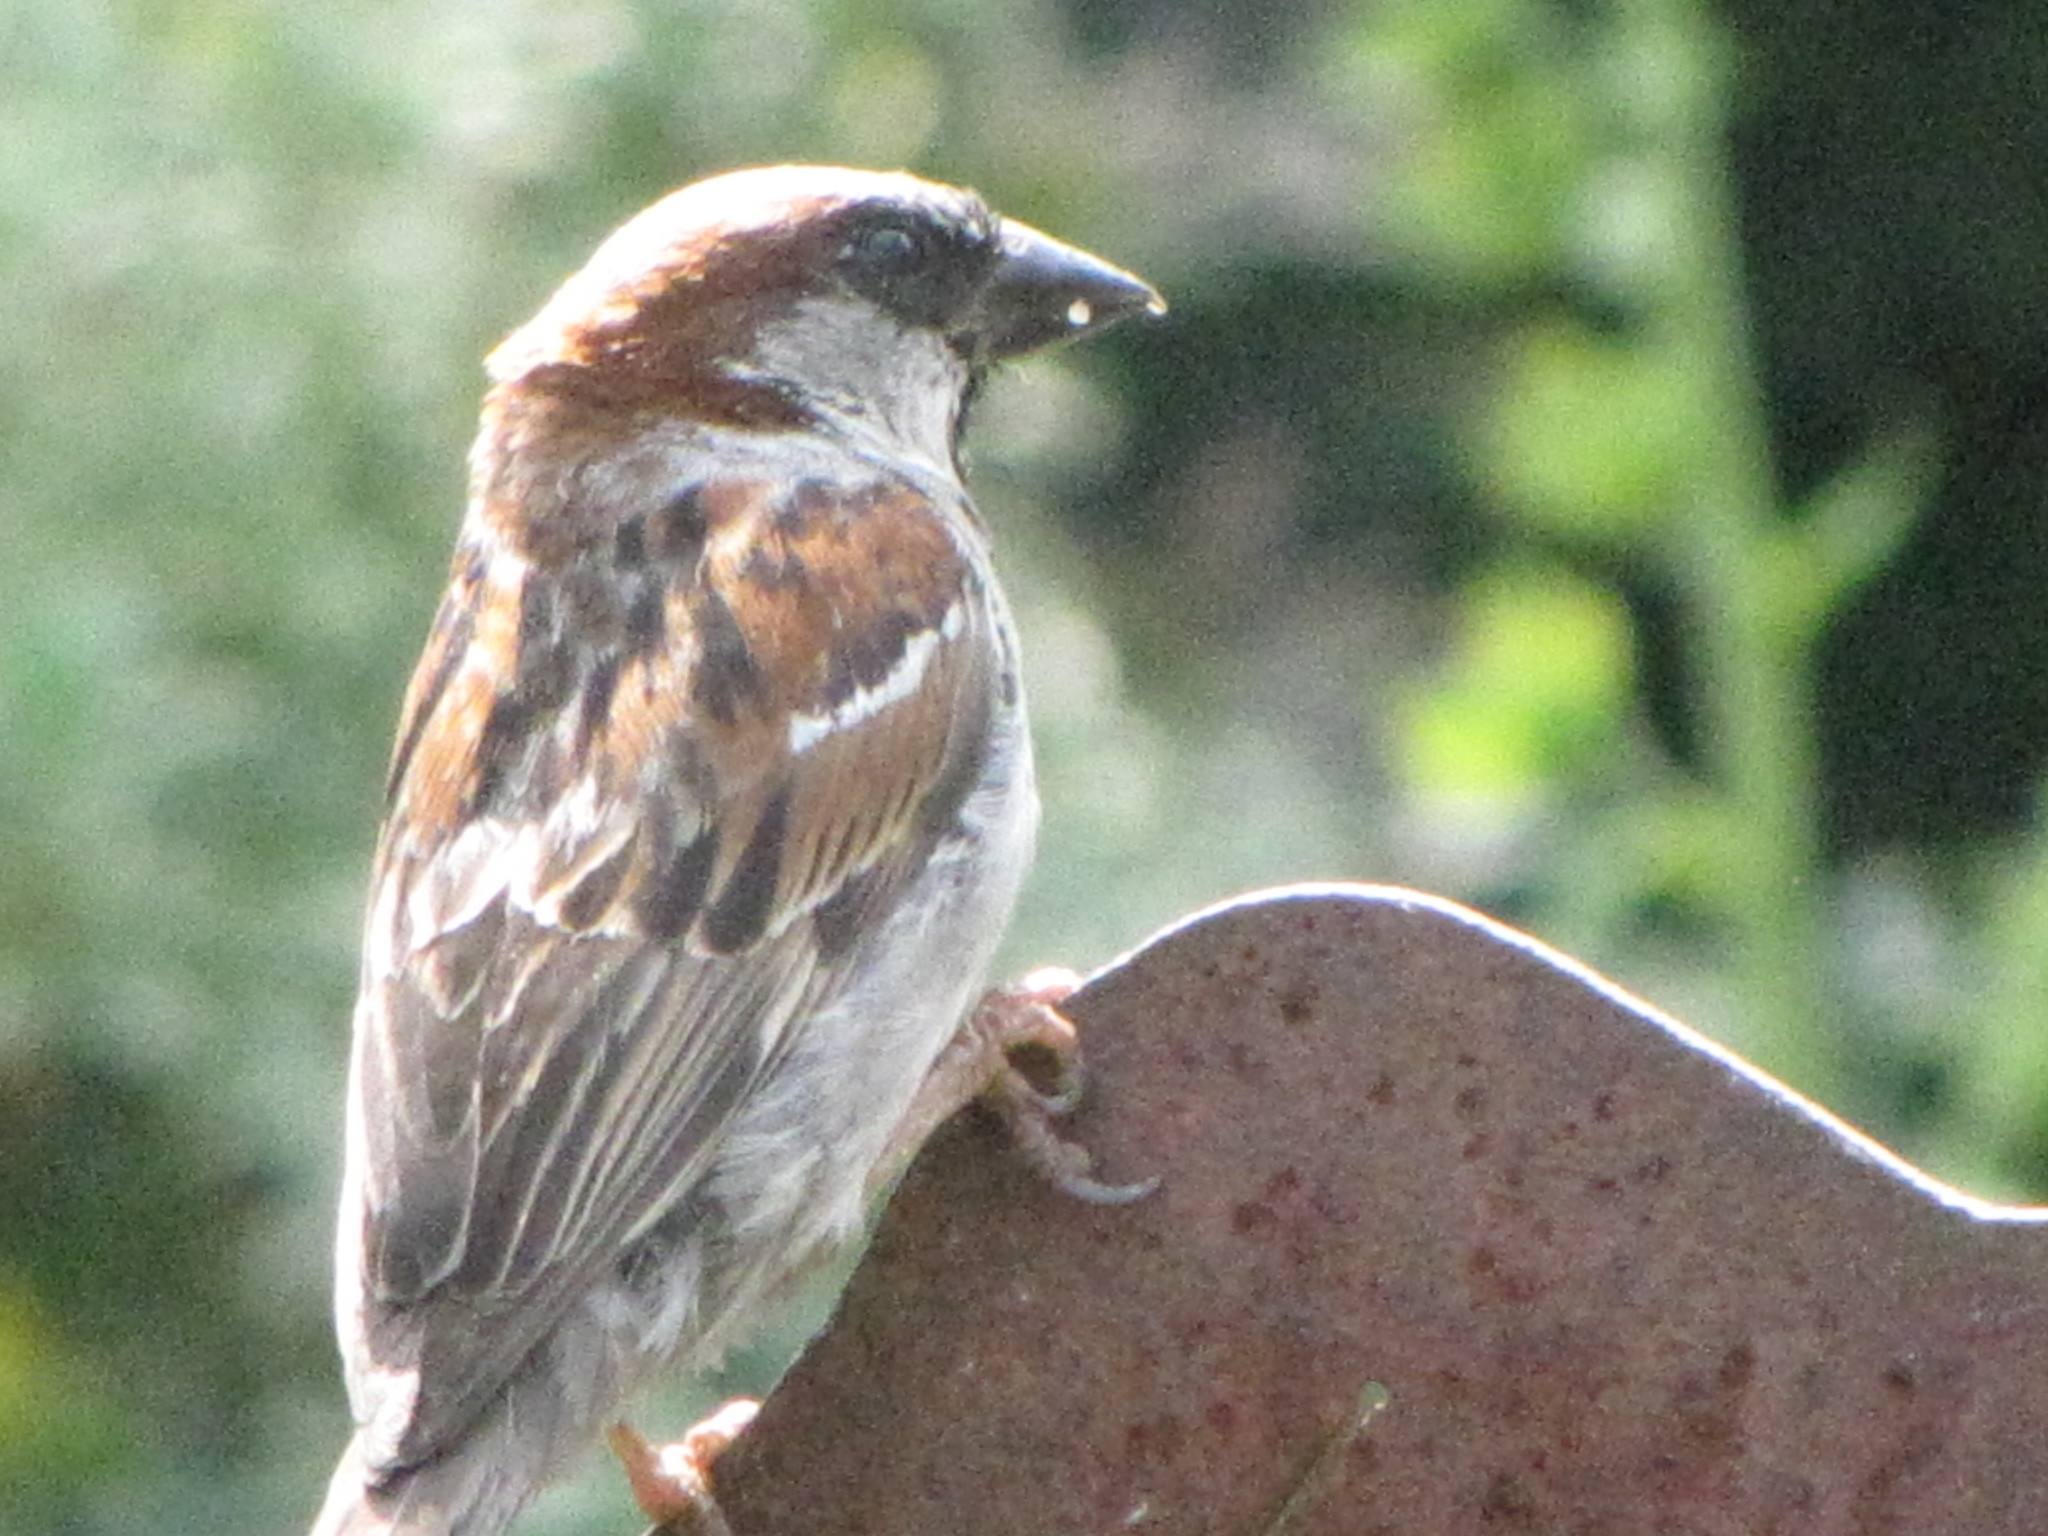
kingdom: Animalia
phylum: Chordata
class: Aves
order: Passeriformes
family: Passeridae
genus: Passer
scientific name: Passer domesticus
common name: House sparrow
